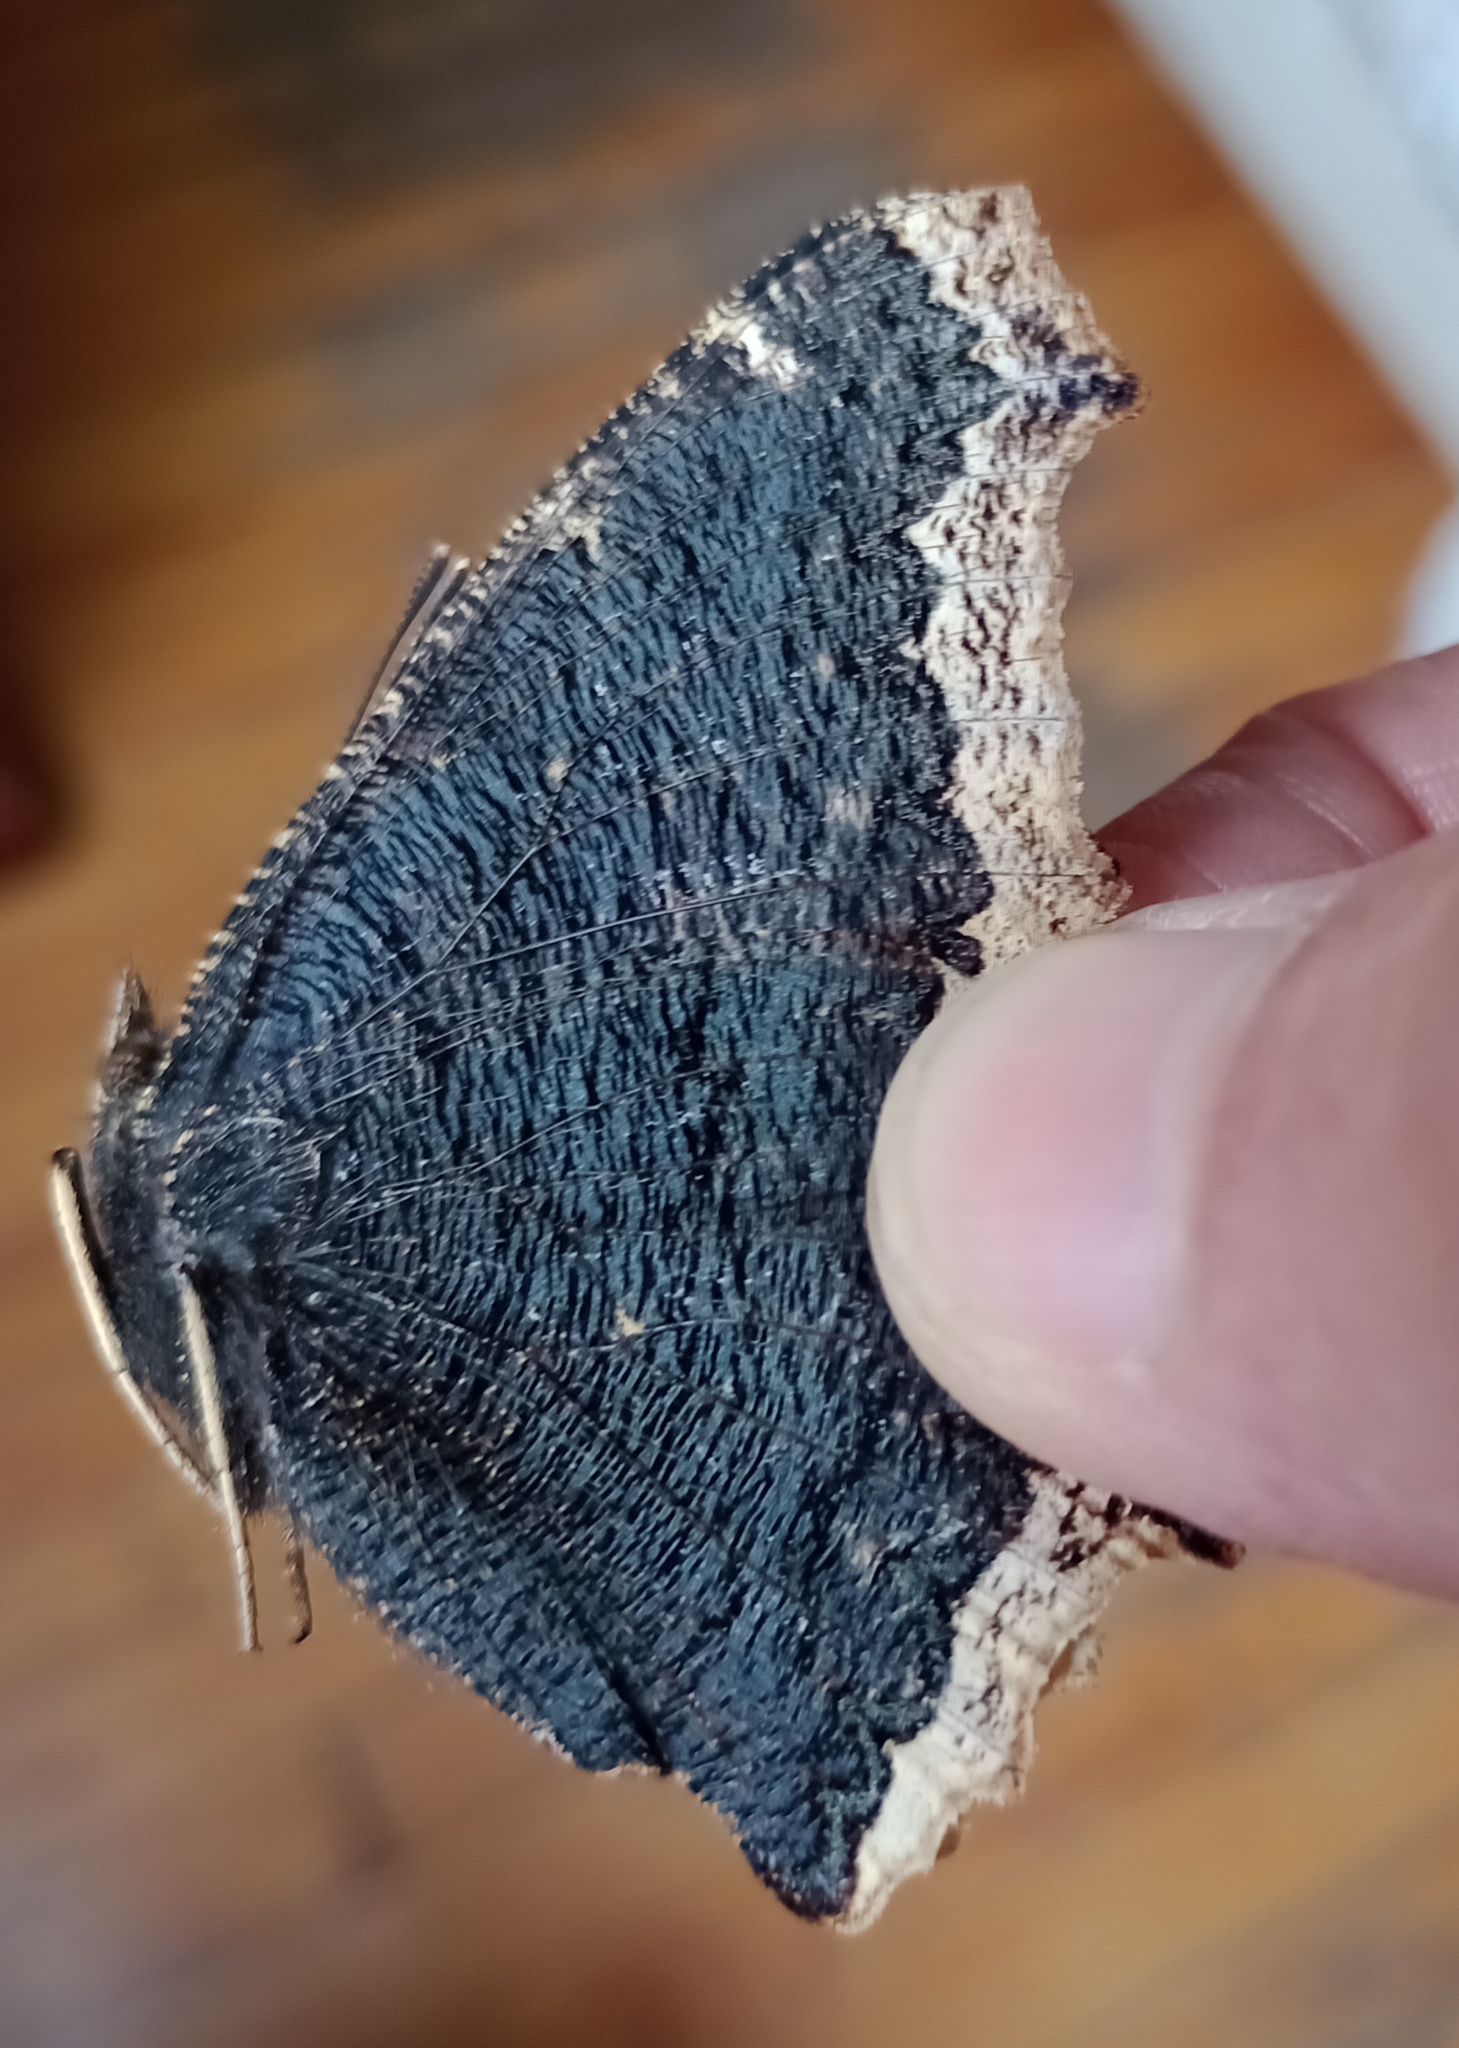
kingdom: Animalia
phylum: Arthropoda
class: Insecta
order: Lepidoptera
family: Nymphalidae
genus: Nymphalis
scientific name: Nymphalis antiopa
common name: Camberwell beauty
